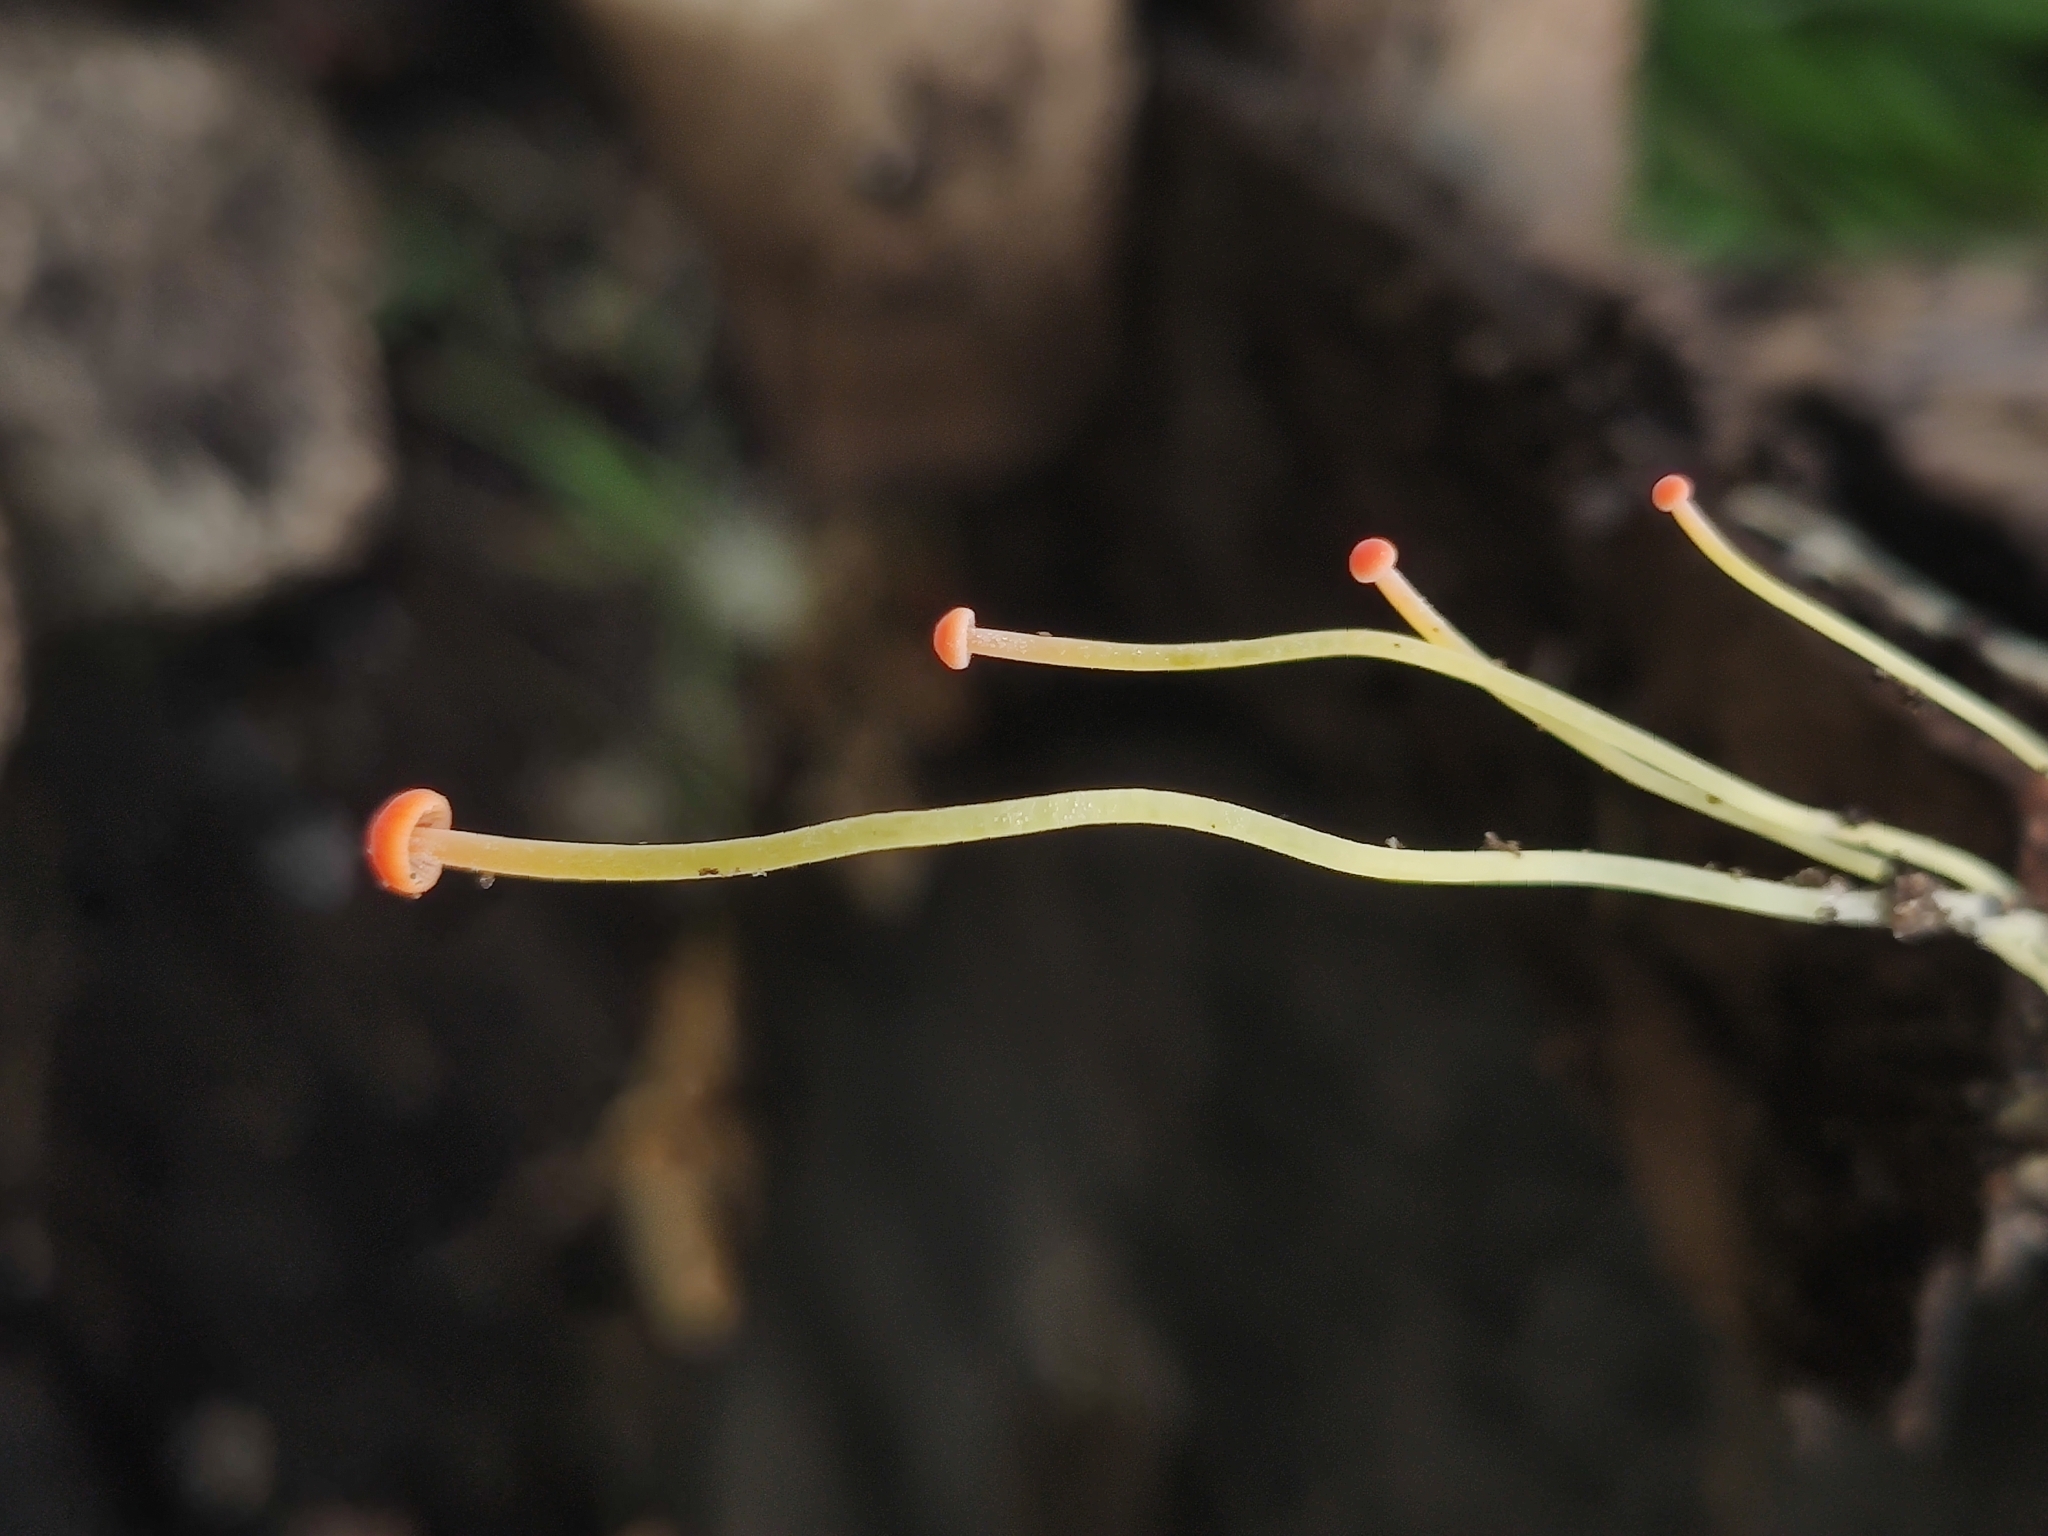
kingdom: Fungi
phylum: Basidiomycota
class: Agaricomycetes
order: Agaricales
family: Mycenaceae
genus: Mycena
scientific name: Mycena acicula
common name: Orange bonnet
